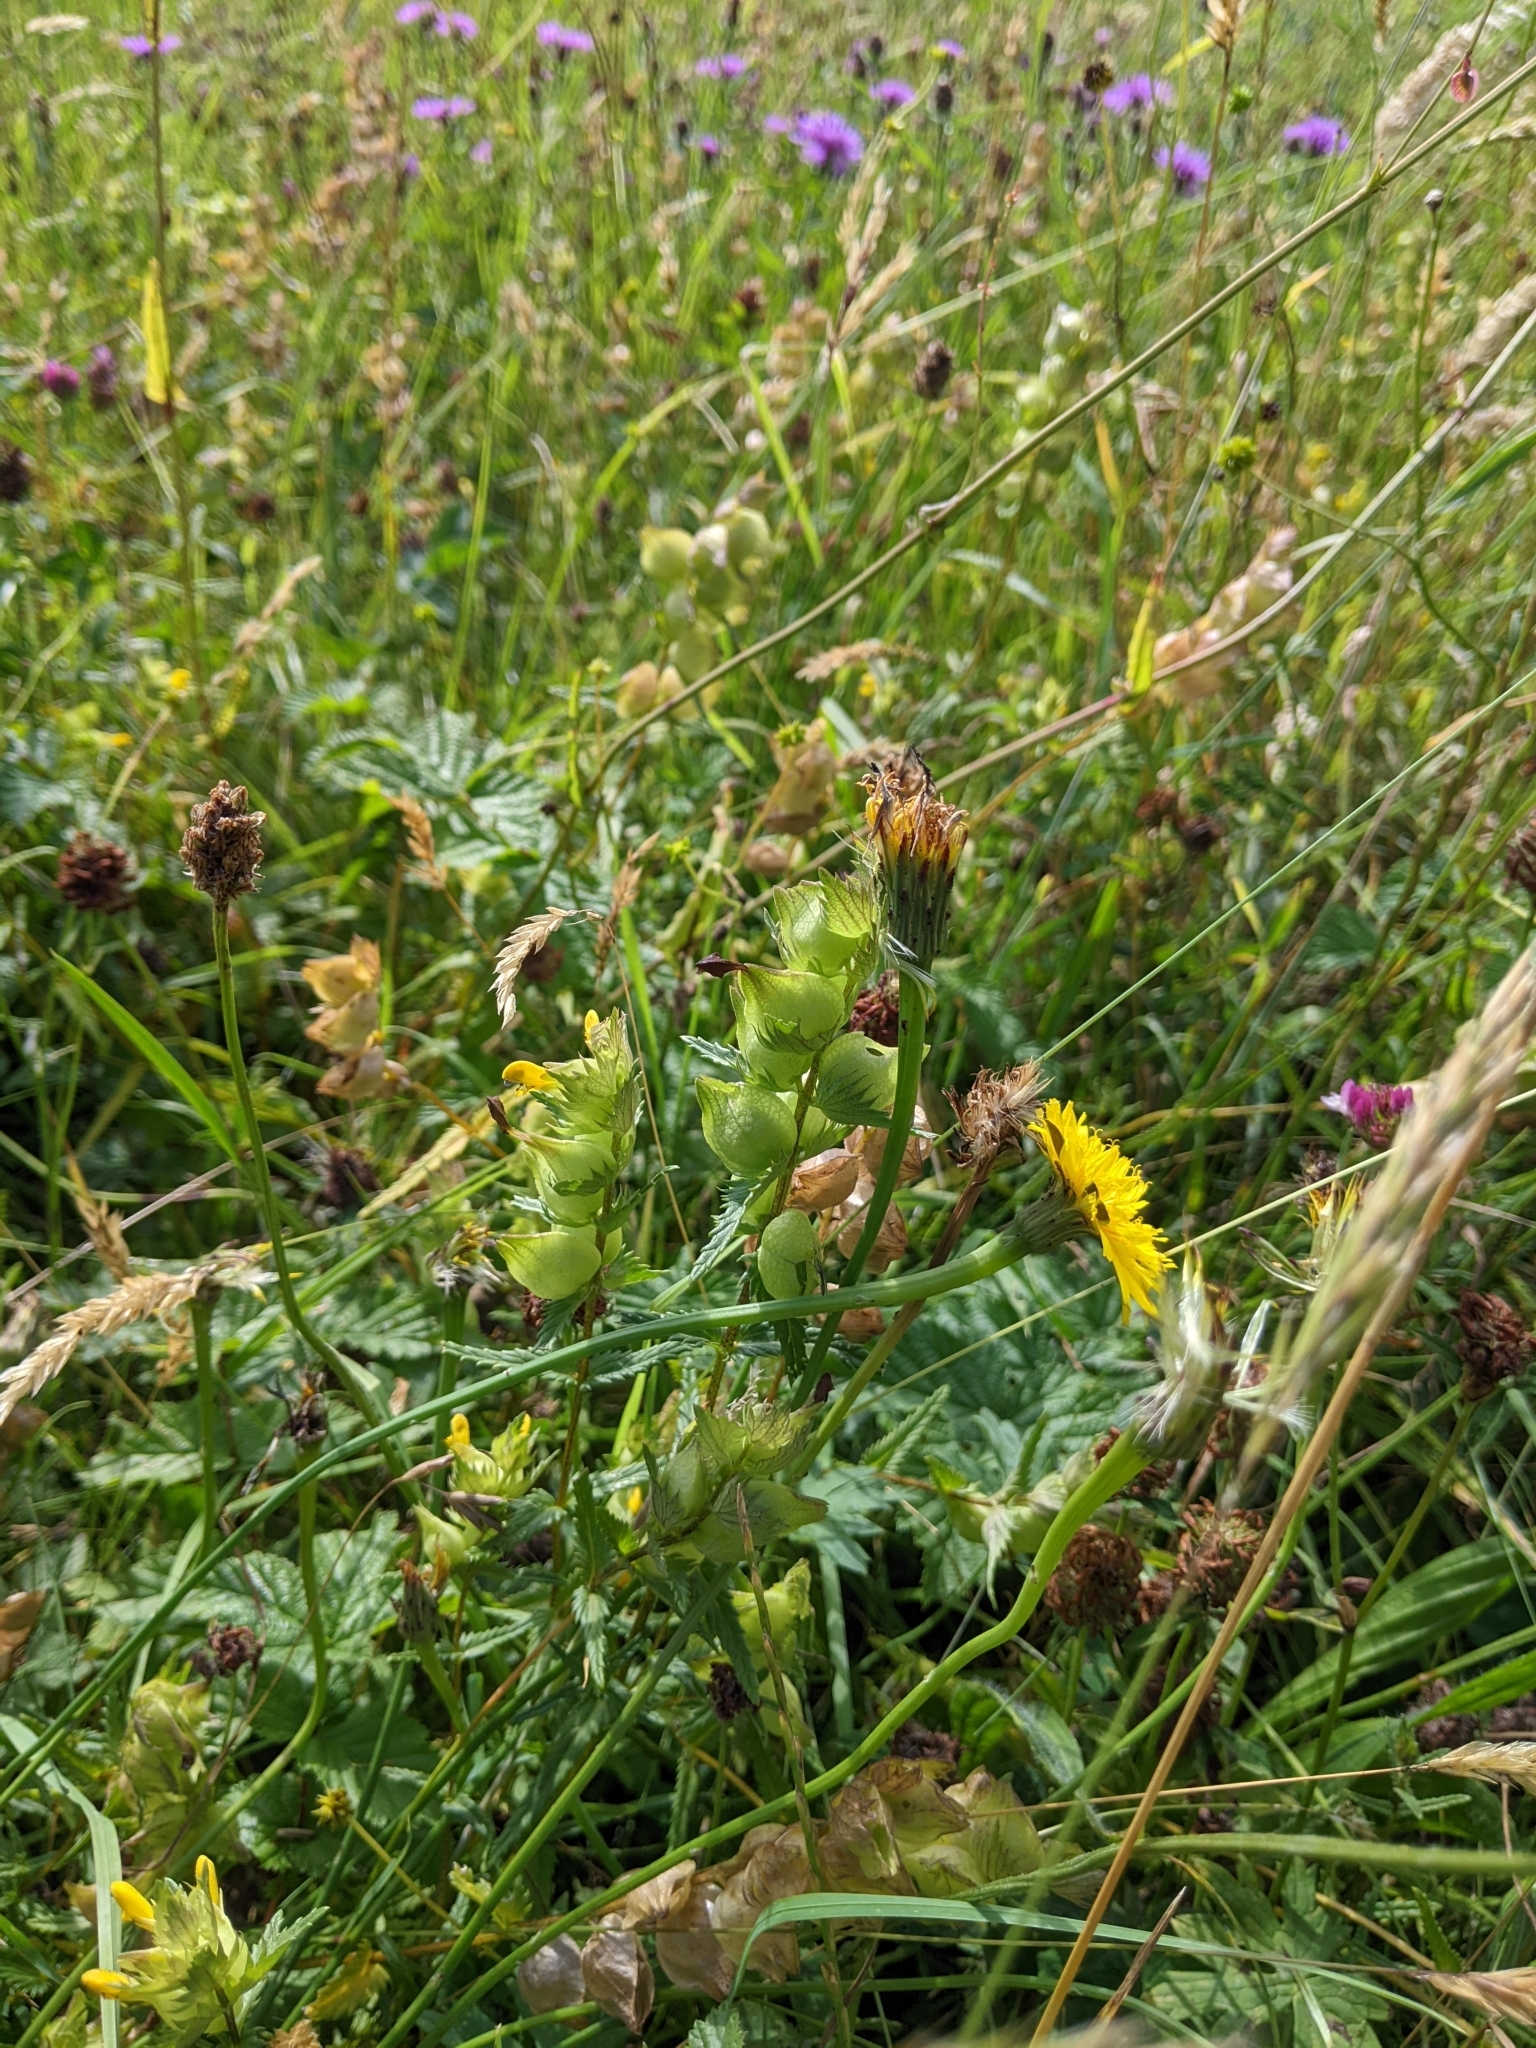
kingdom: Plantae
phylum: Tracheophyta
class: Magnoliopsida
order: Lamiales
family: Orobanchaceae
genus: Rhinanthus
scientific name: Rhinanthus minor
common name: Yellow-rattle
